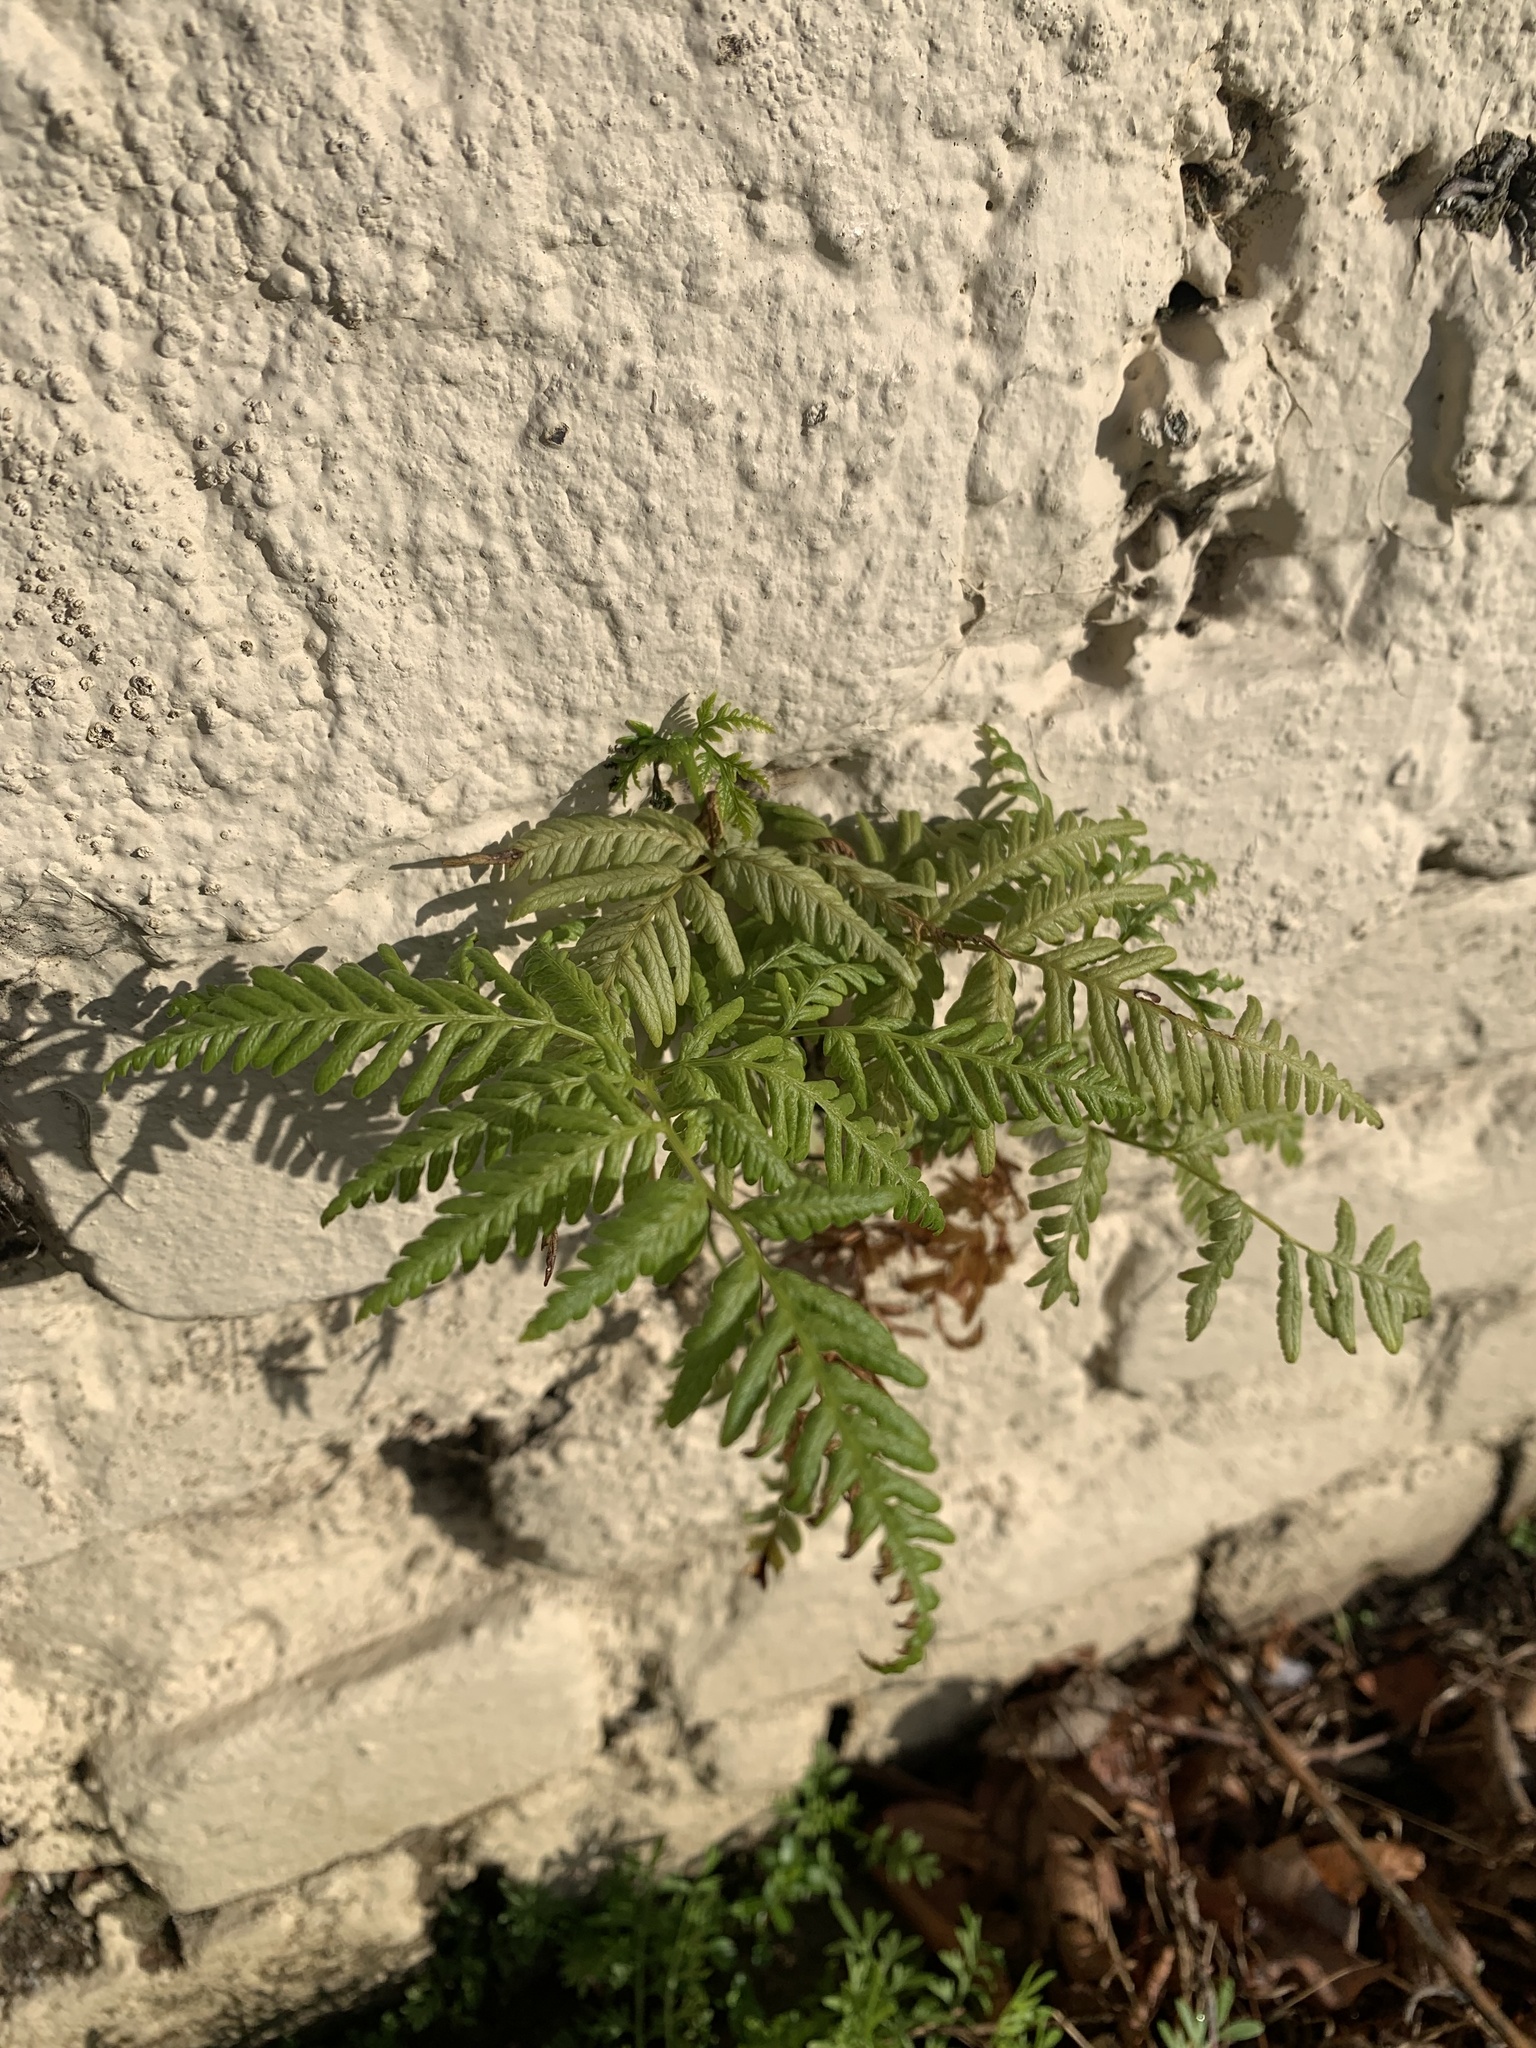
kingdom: Plantae
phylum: Tracheophyta
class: Polypodiopsida
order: Polypodiales
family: Dennstaedtiaceae
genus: Pteridium
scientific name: Pteridium esculentum
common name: Bracken fern
